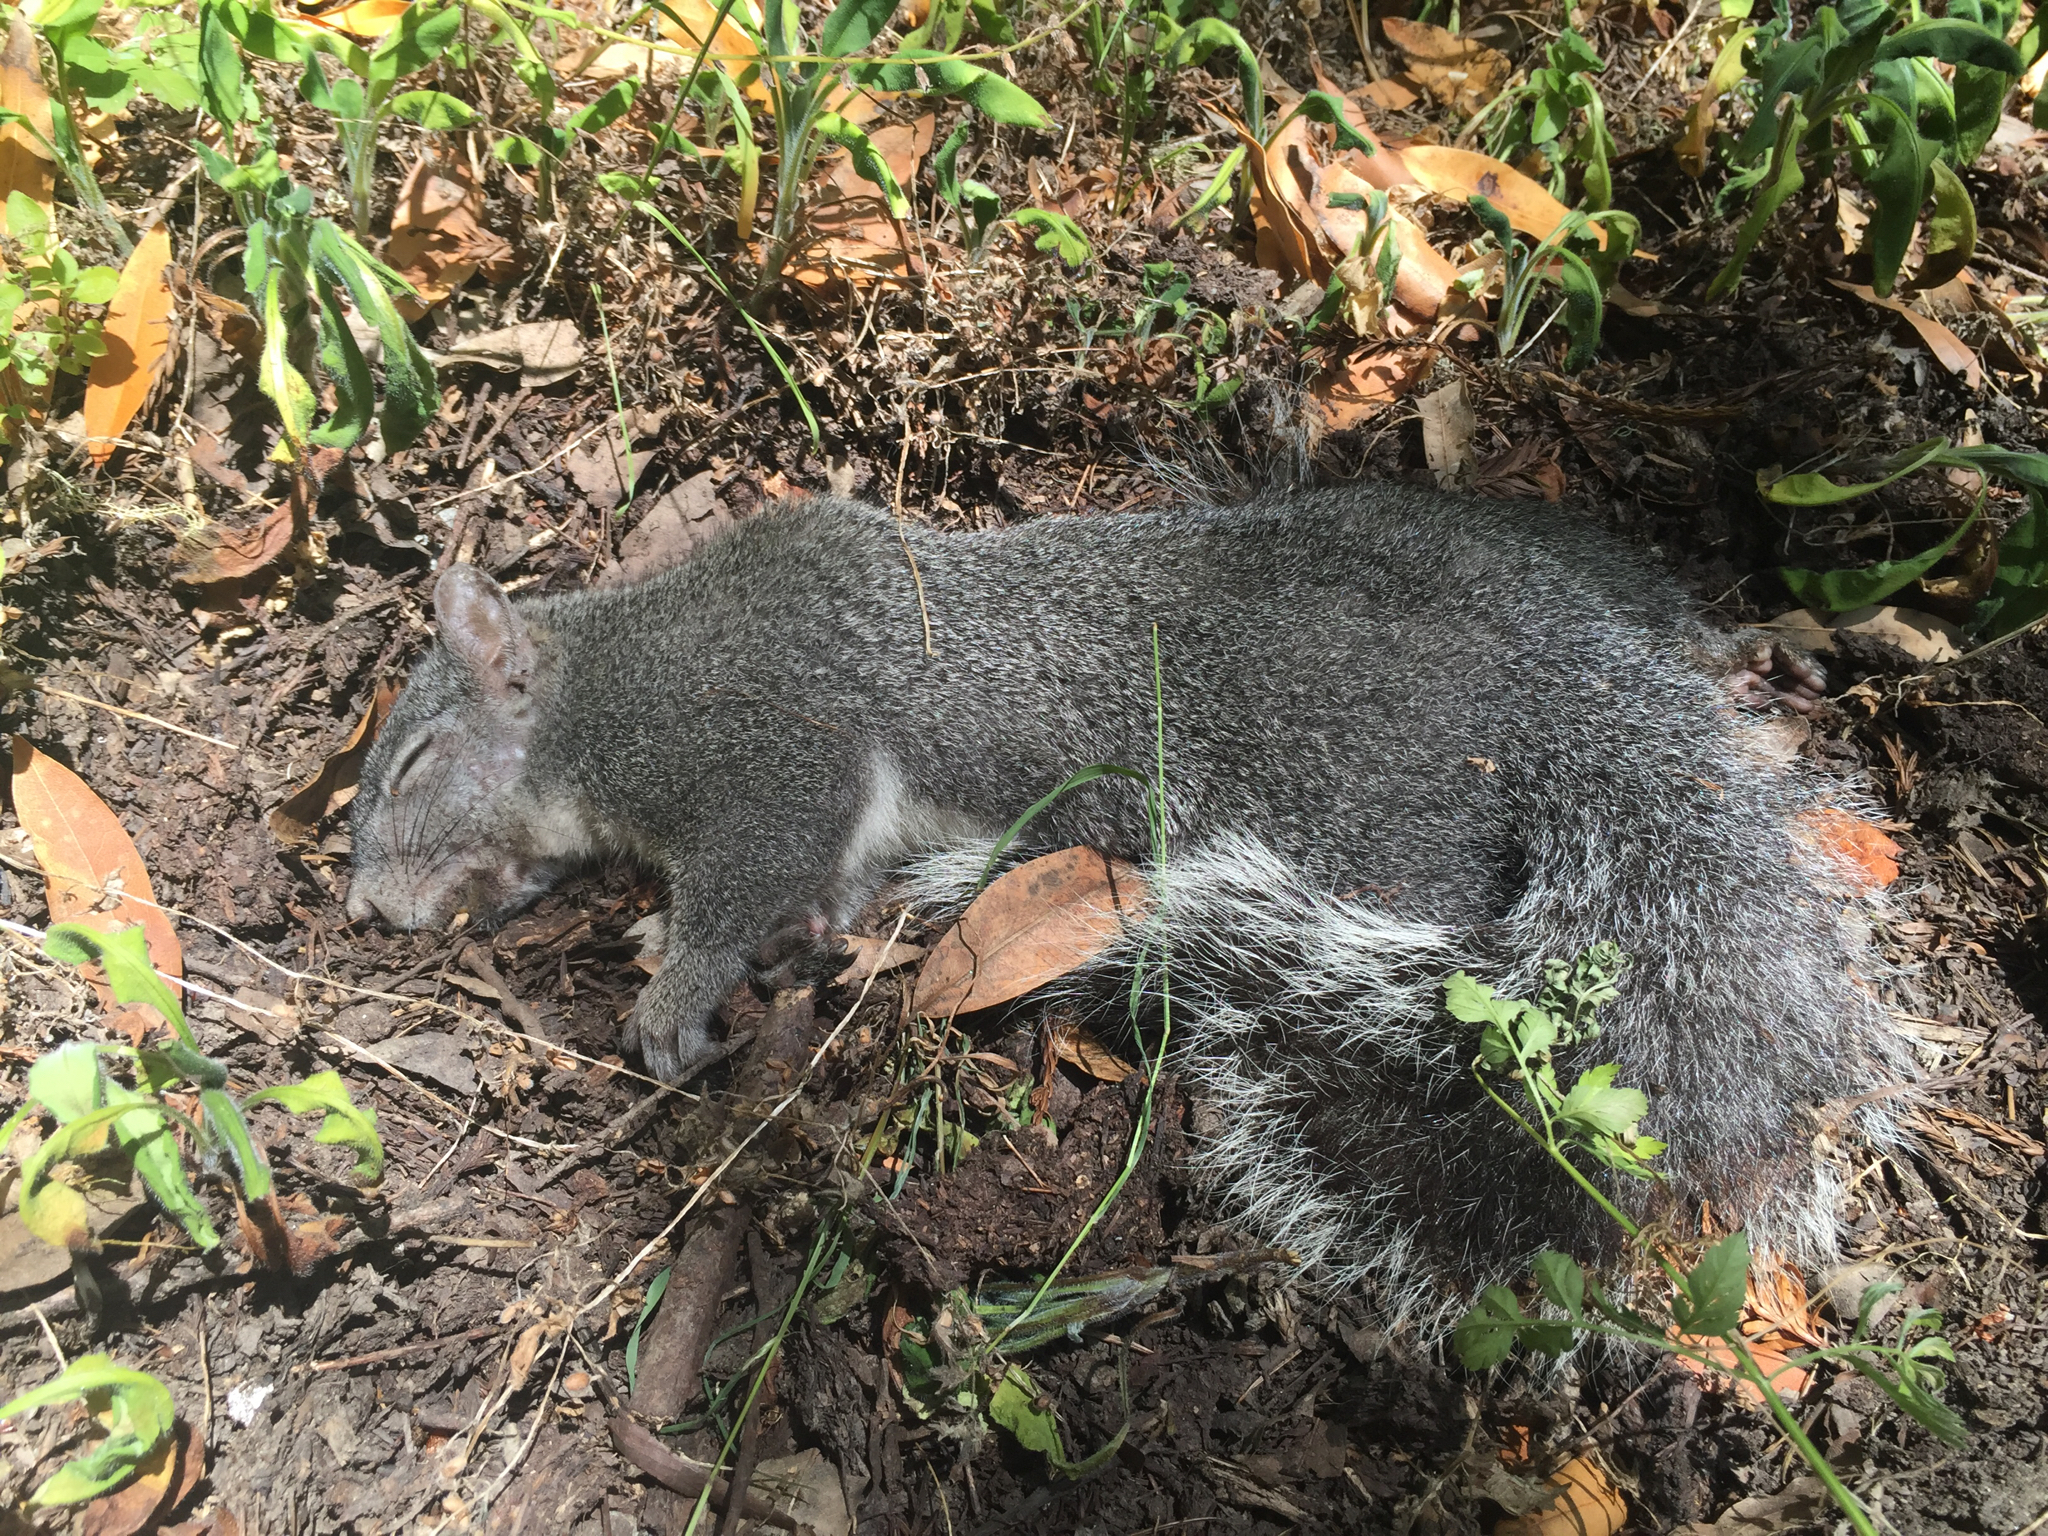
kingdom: Animalia
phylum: Chordata
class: Mammalia
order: Rodentia
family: Sciuridae
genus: Sciurus
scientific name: Sciurus griseus
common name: Western gray squirrel
